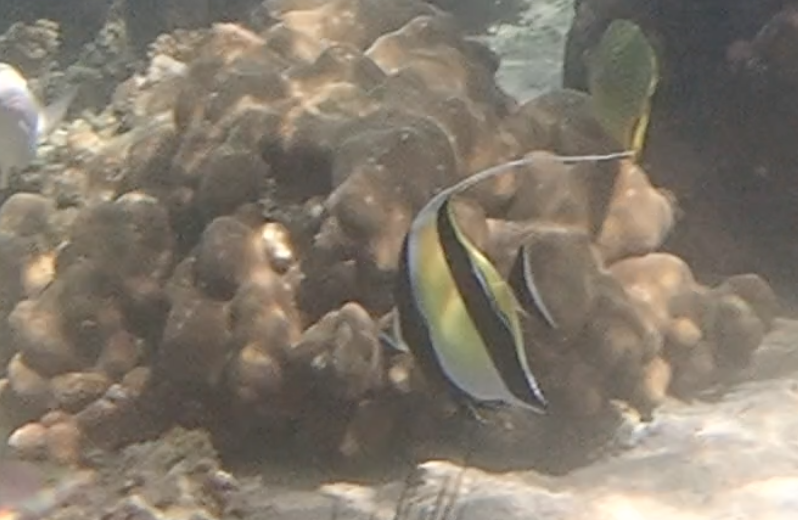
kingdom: Animalia
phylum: Chordata
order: Perciformes
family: Zanclidae
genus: Zanclus
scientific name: Zanclus cornutus
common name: Moorish idol
